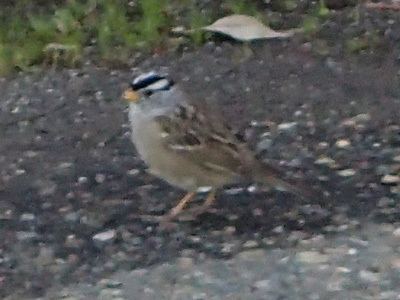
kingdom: Animalia
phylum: Chordata
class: Aves
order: Passeriformes
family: Passerellidae
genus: Zonotrichia
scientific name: Zonotrichia leucophrys
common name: White-crowned sparrow
